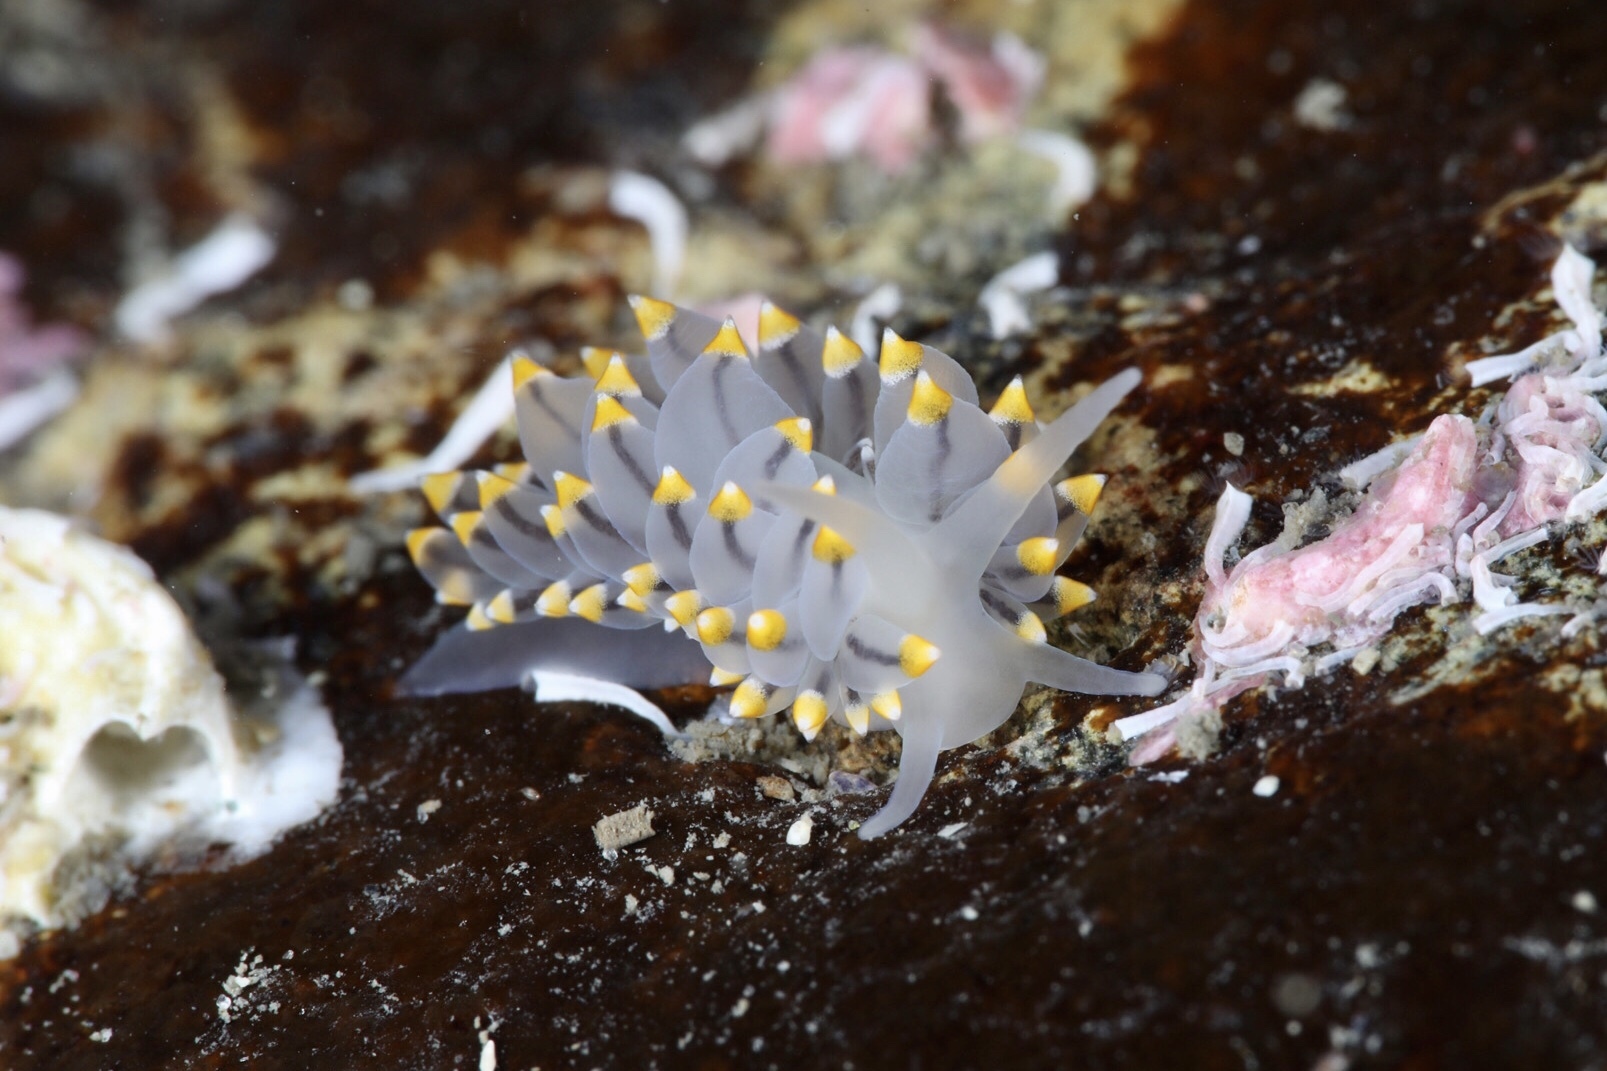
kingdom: Animalia
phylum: Mollusca
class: Gastropoda
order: Nudibranchia
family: Eubranchidae
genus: Eubranchus
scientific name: Eubranchus tricolor
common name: Painted balloon aeolis
